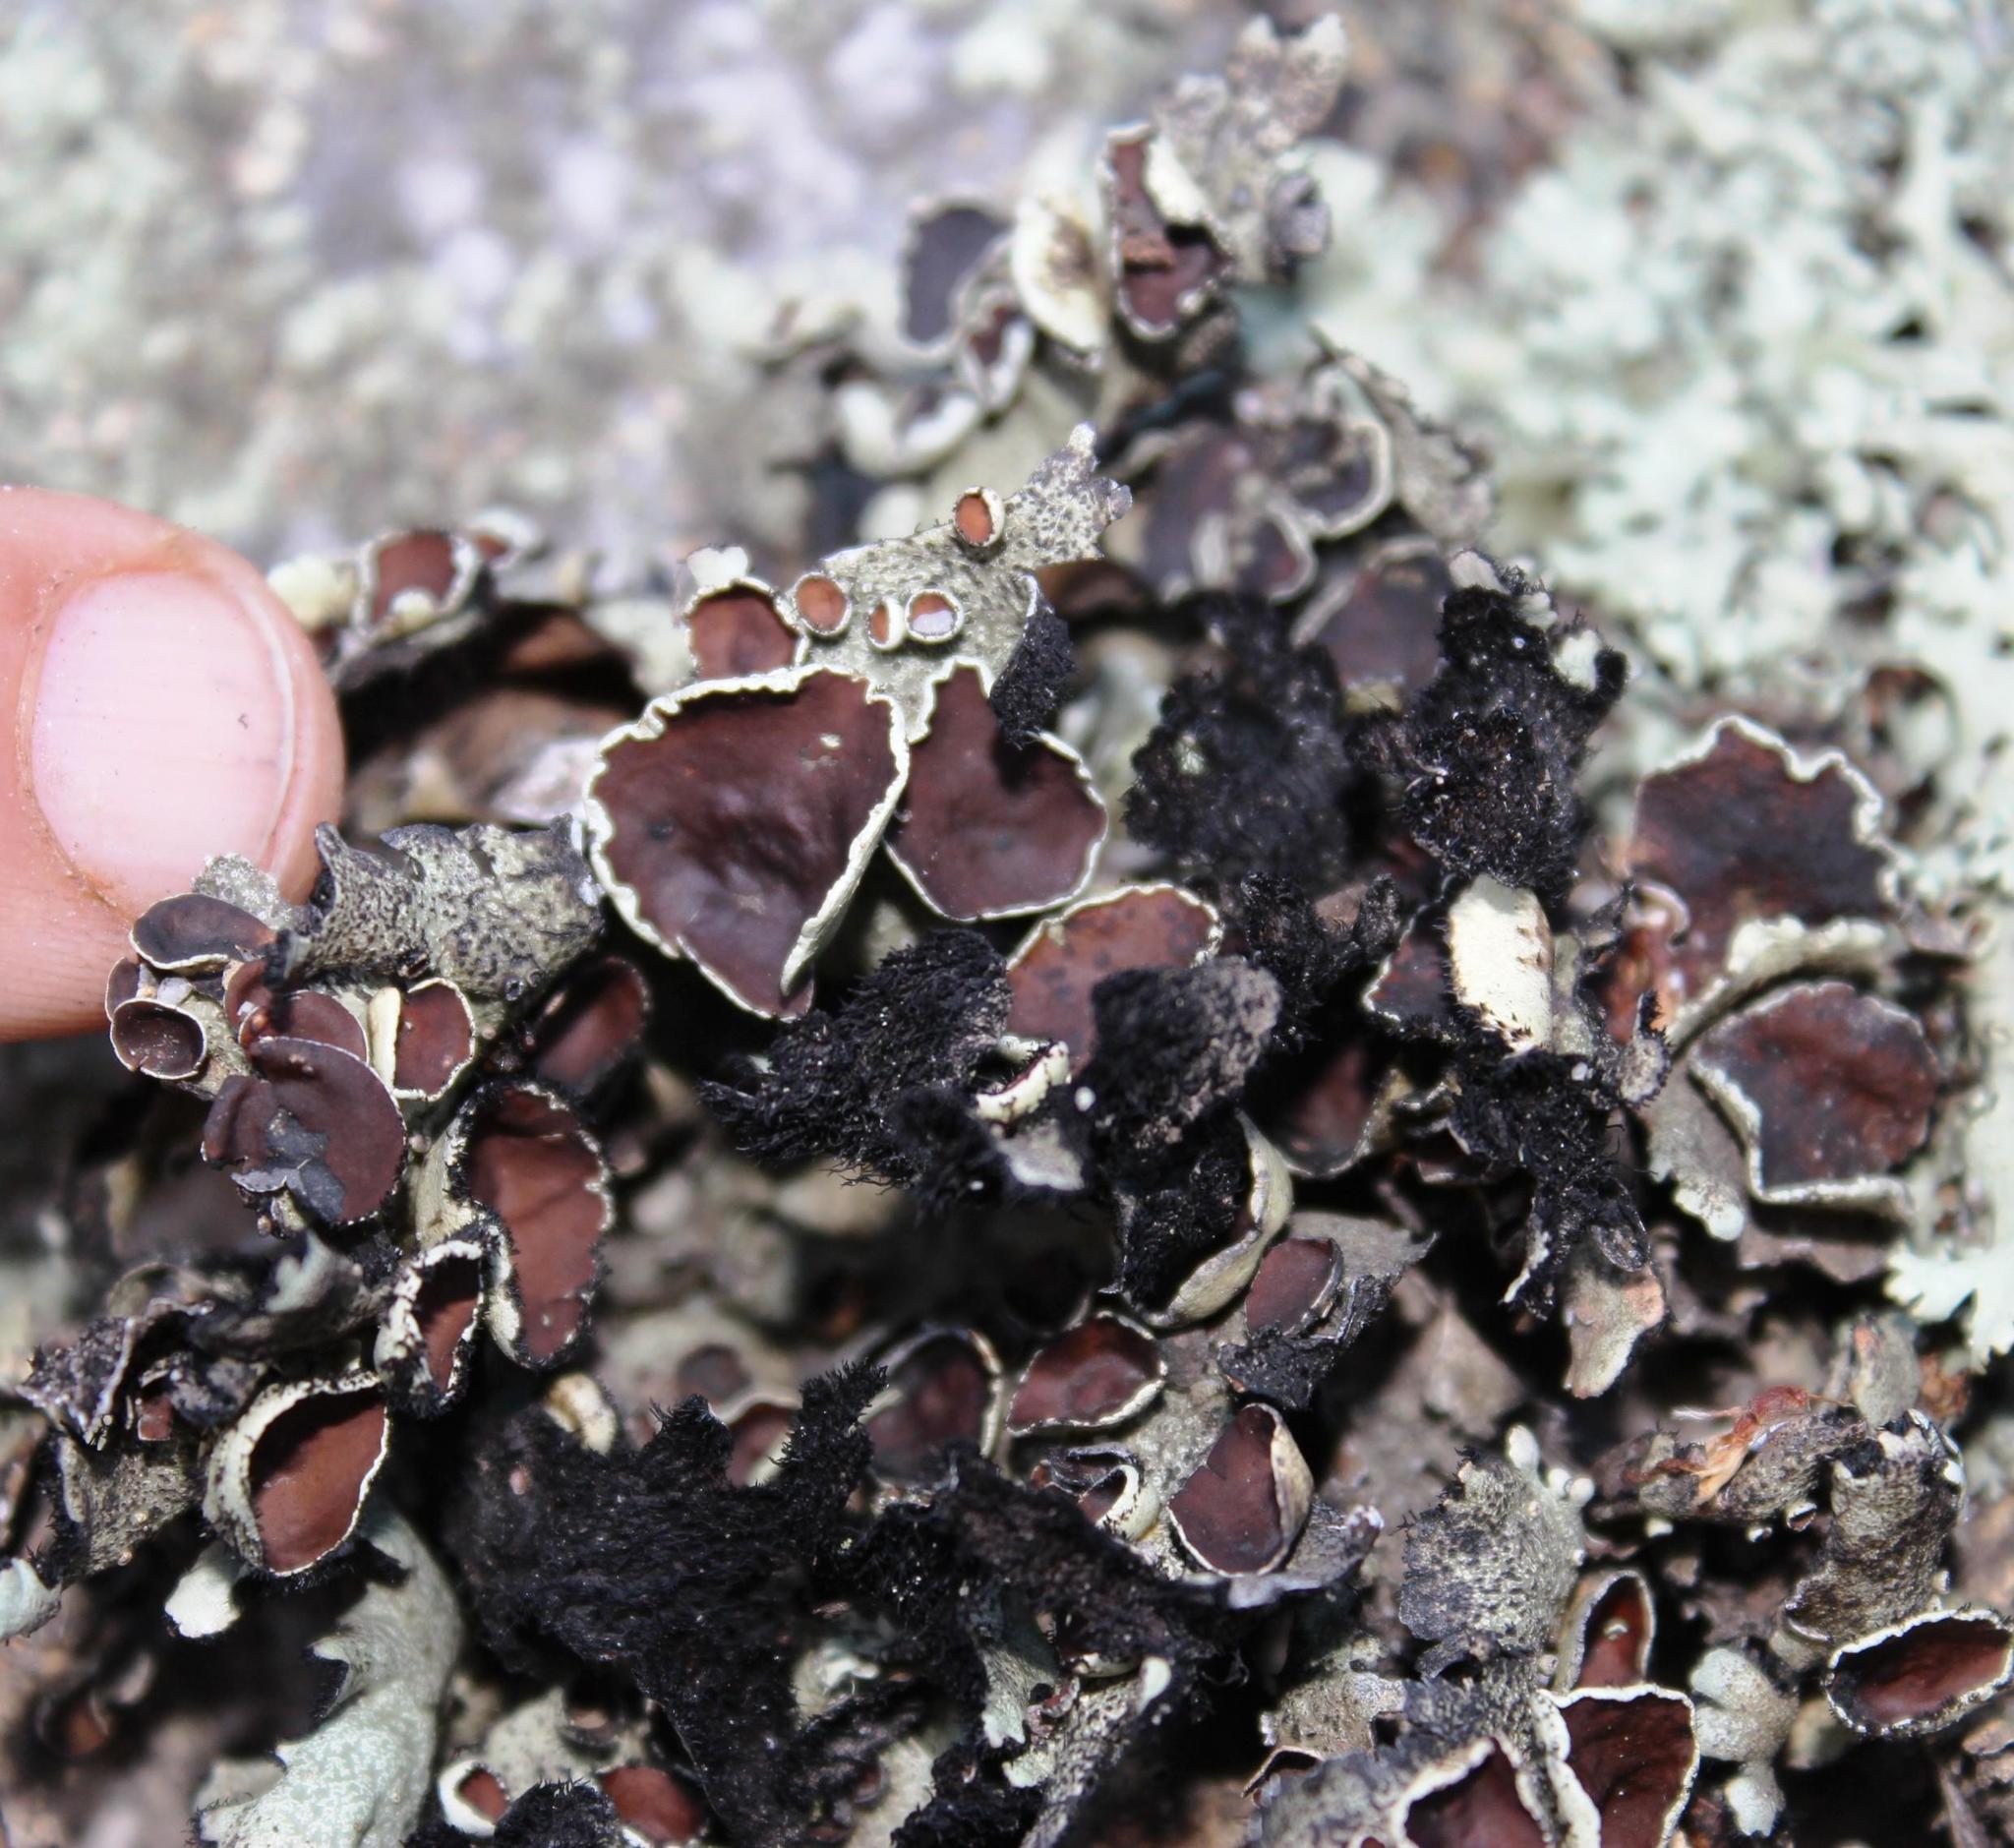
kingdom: Fungi
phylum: Ascomycota
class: Lecanoromycetes
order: Lecanorales
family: Parmeliaceae
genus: Xanthoparmelia
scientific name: Xanthoparmelia hottentotta
